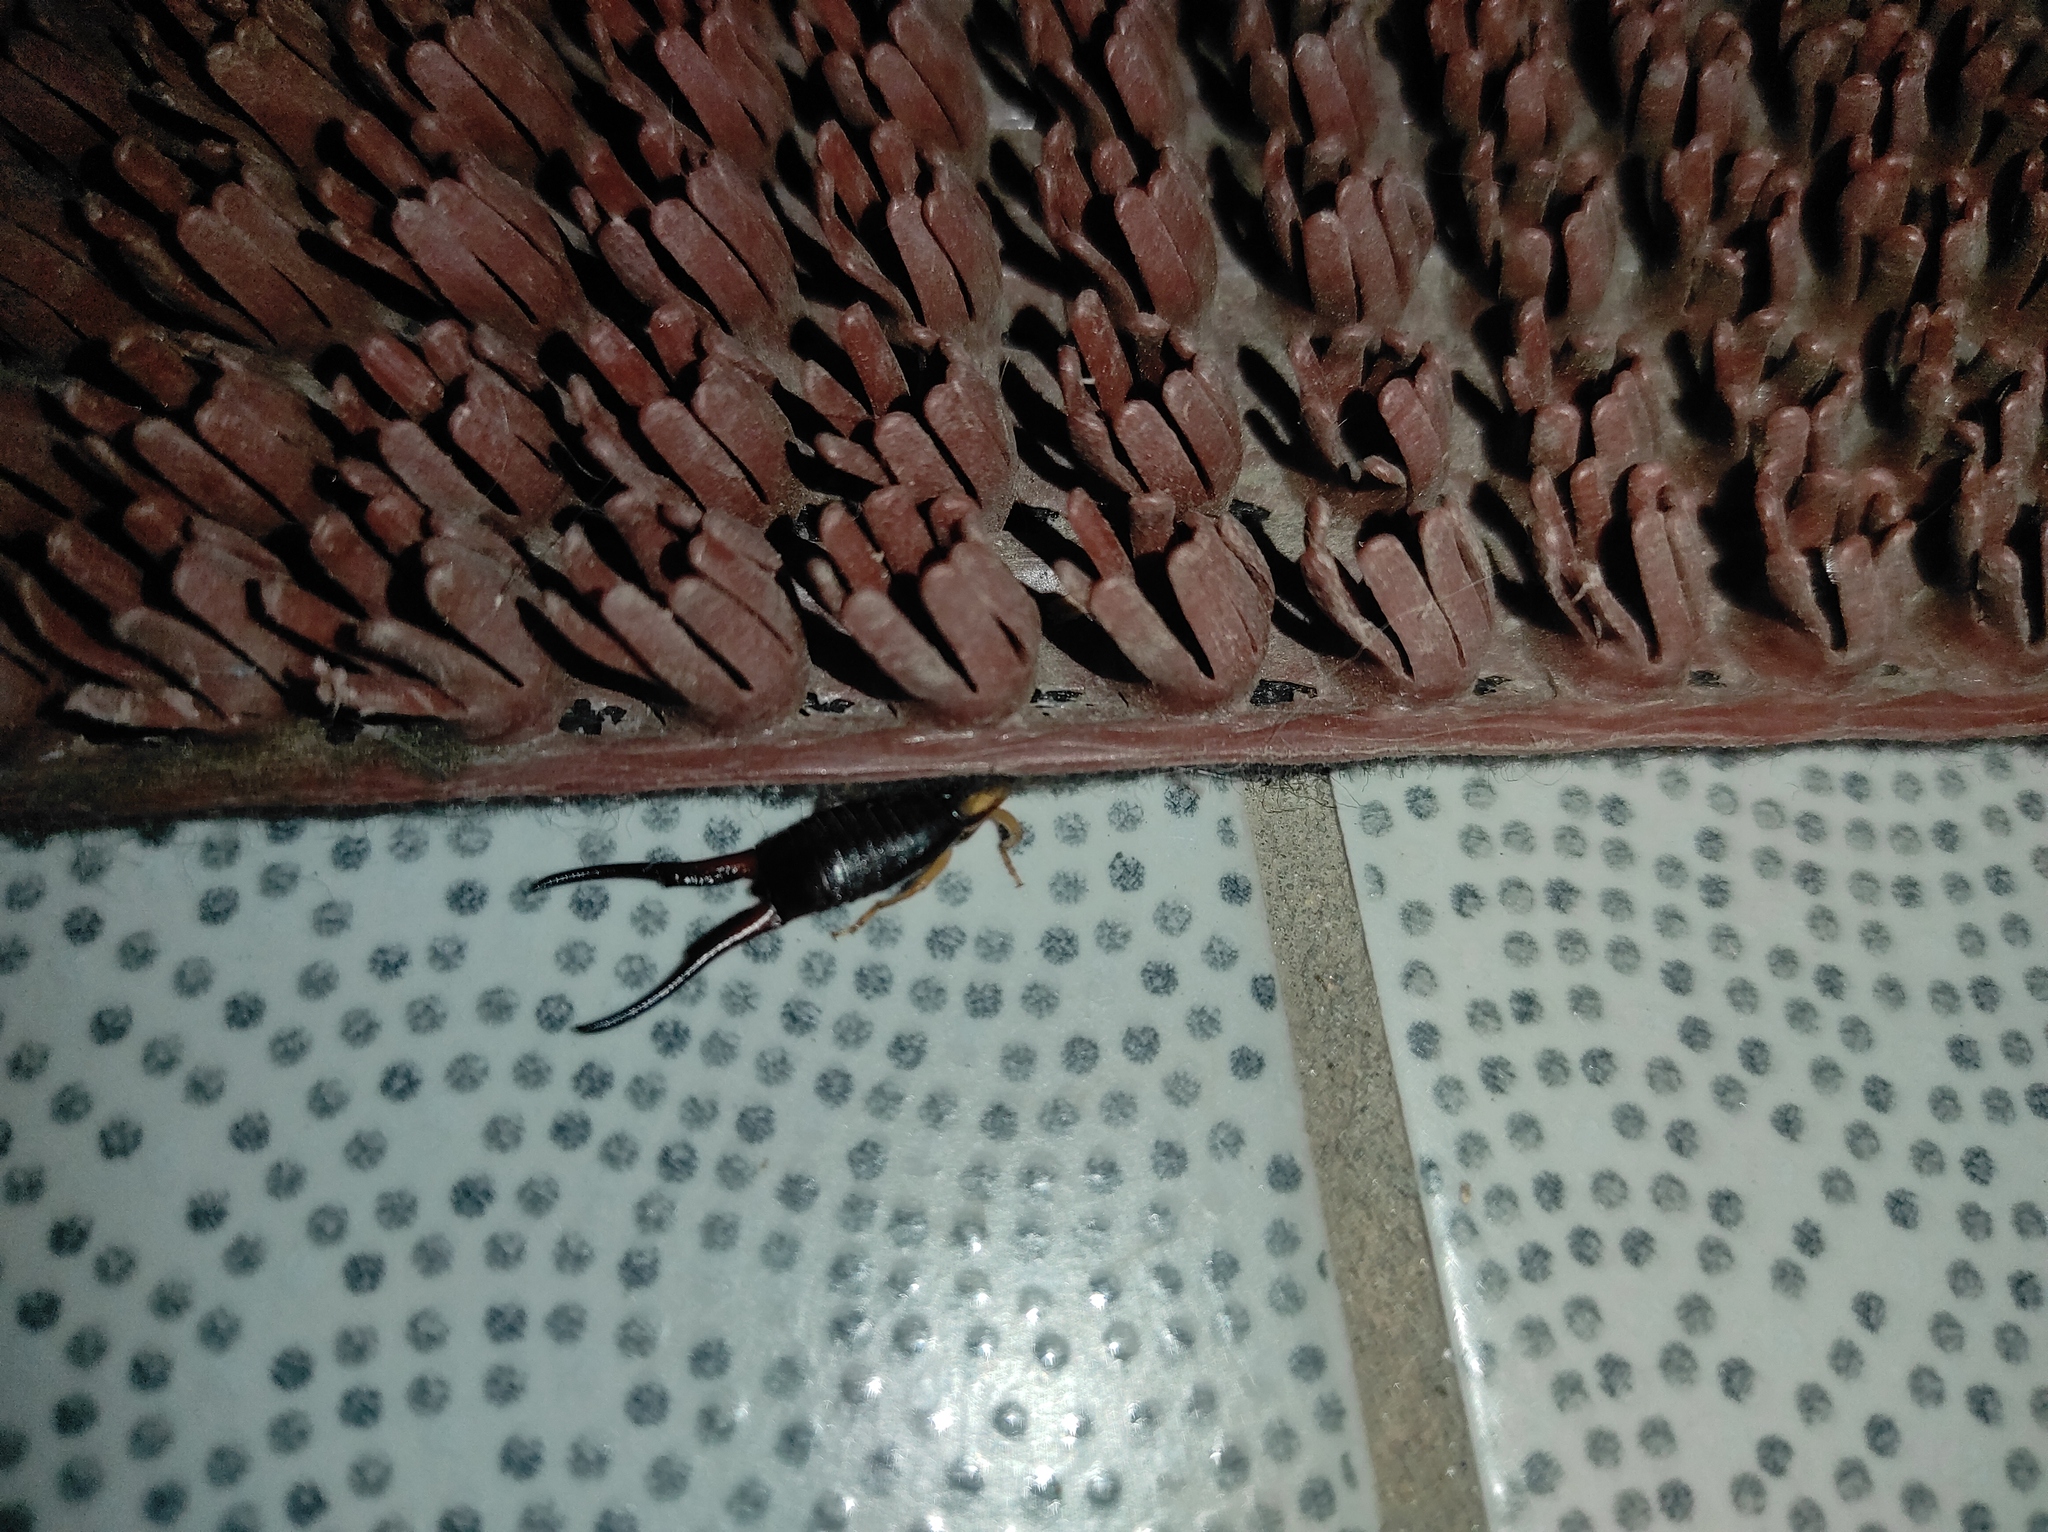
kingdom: Animalia
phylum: Arthropoda
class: Insecta
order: Dermaptera
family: Forficulidae
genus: Forficula
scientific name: Forficula tomis
